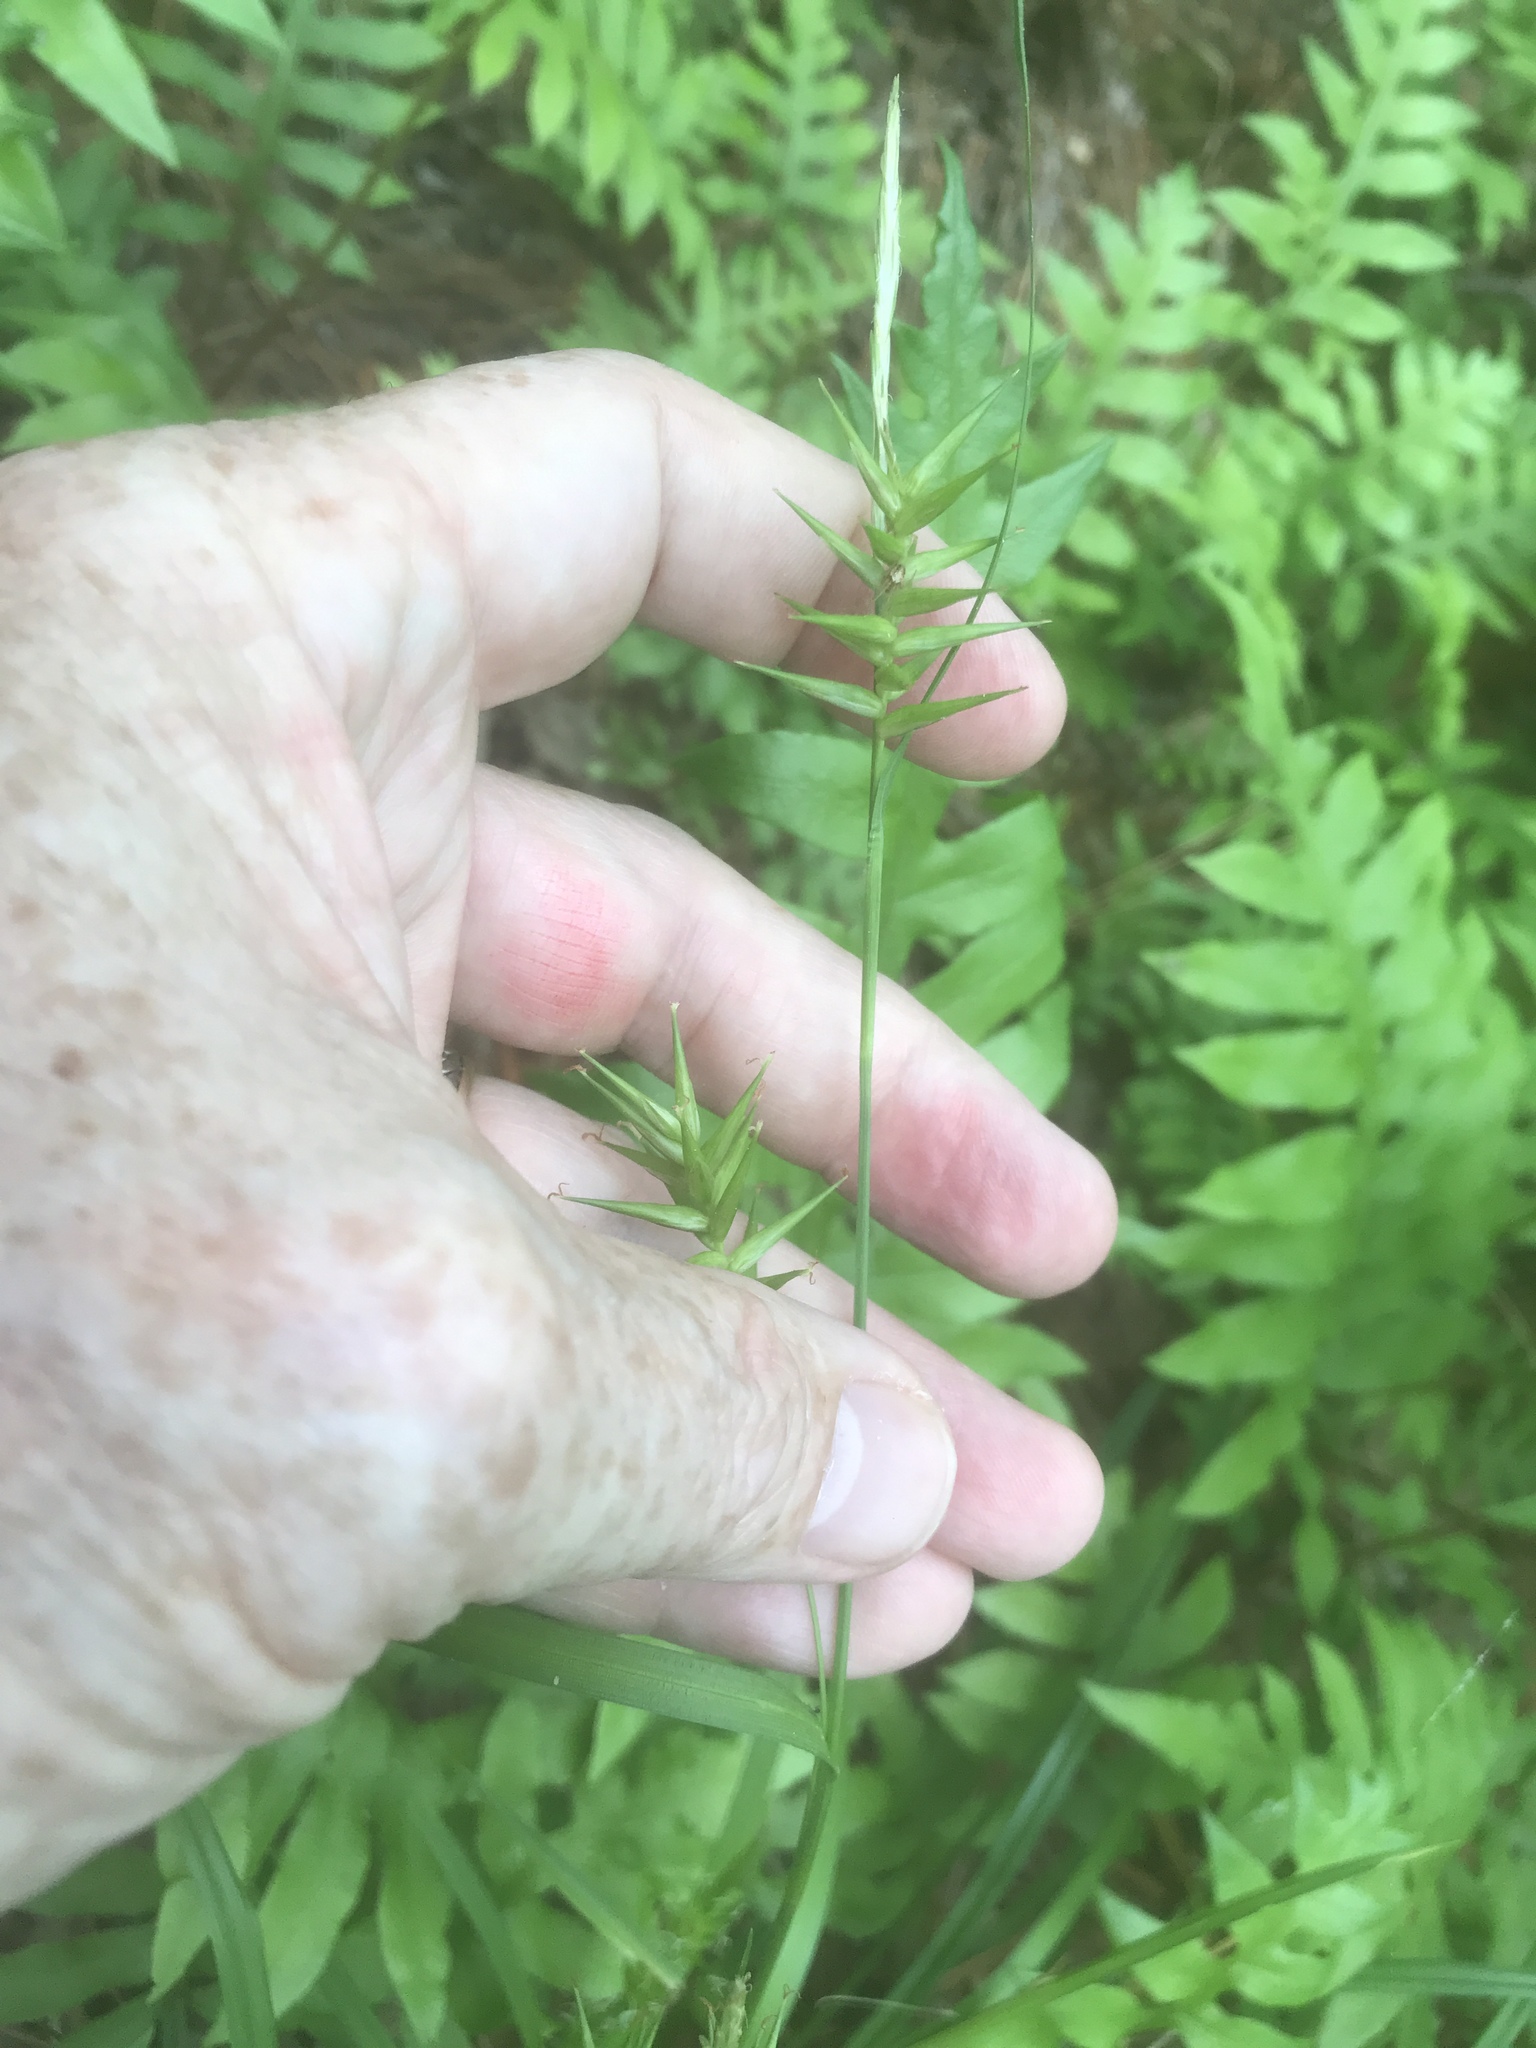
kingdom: Plantae
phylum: Tracheophyta
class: Liliopsida
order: Poales
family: Cyperaceae
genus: Carex
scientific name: Carex lonchocarpa
